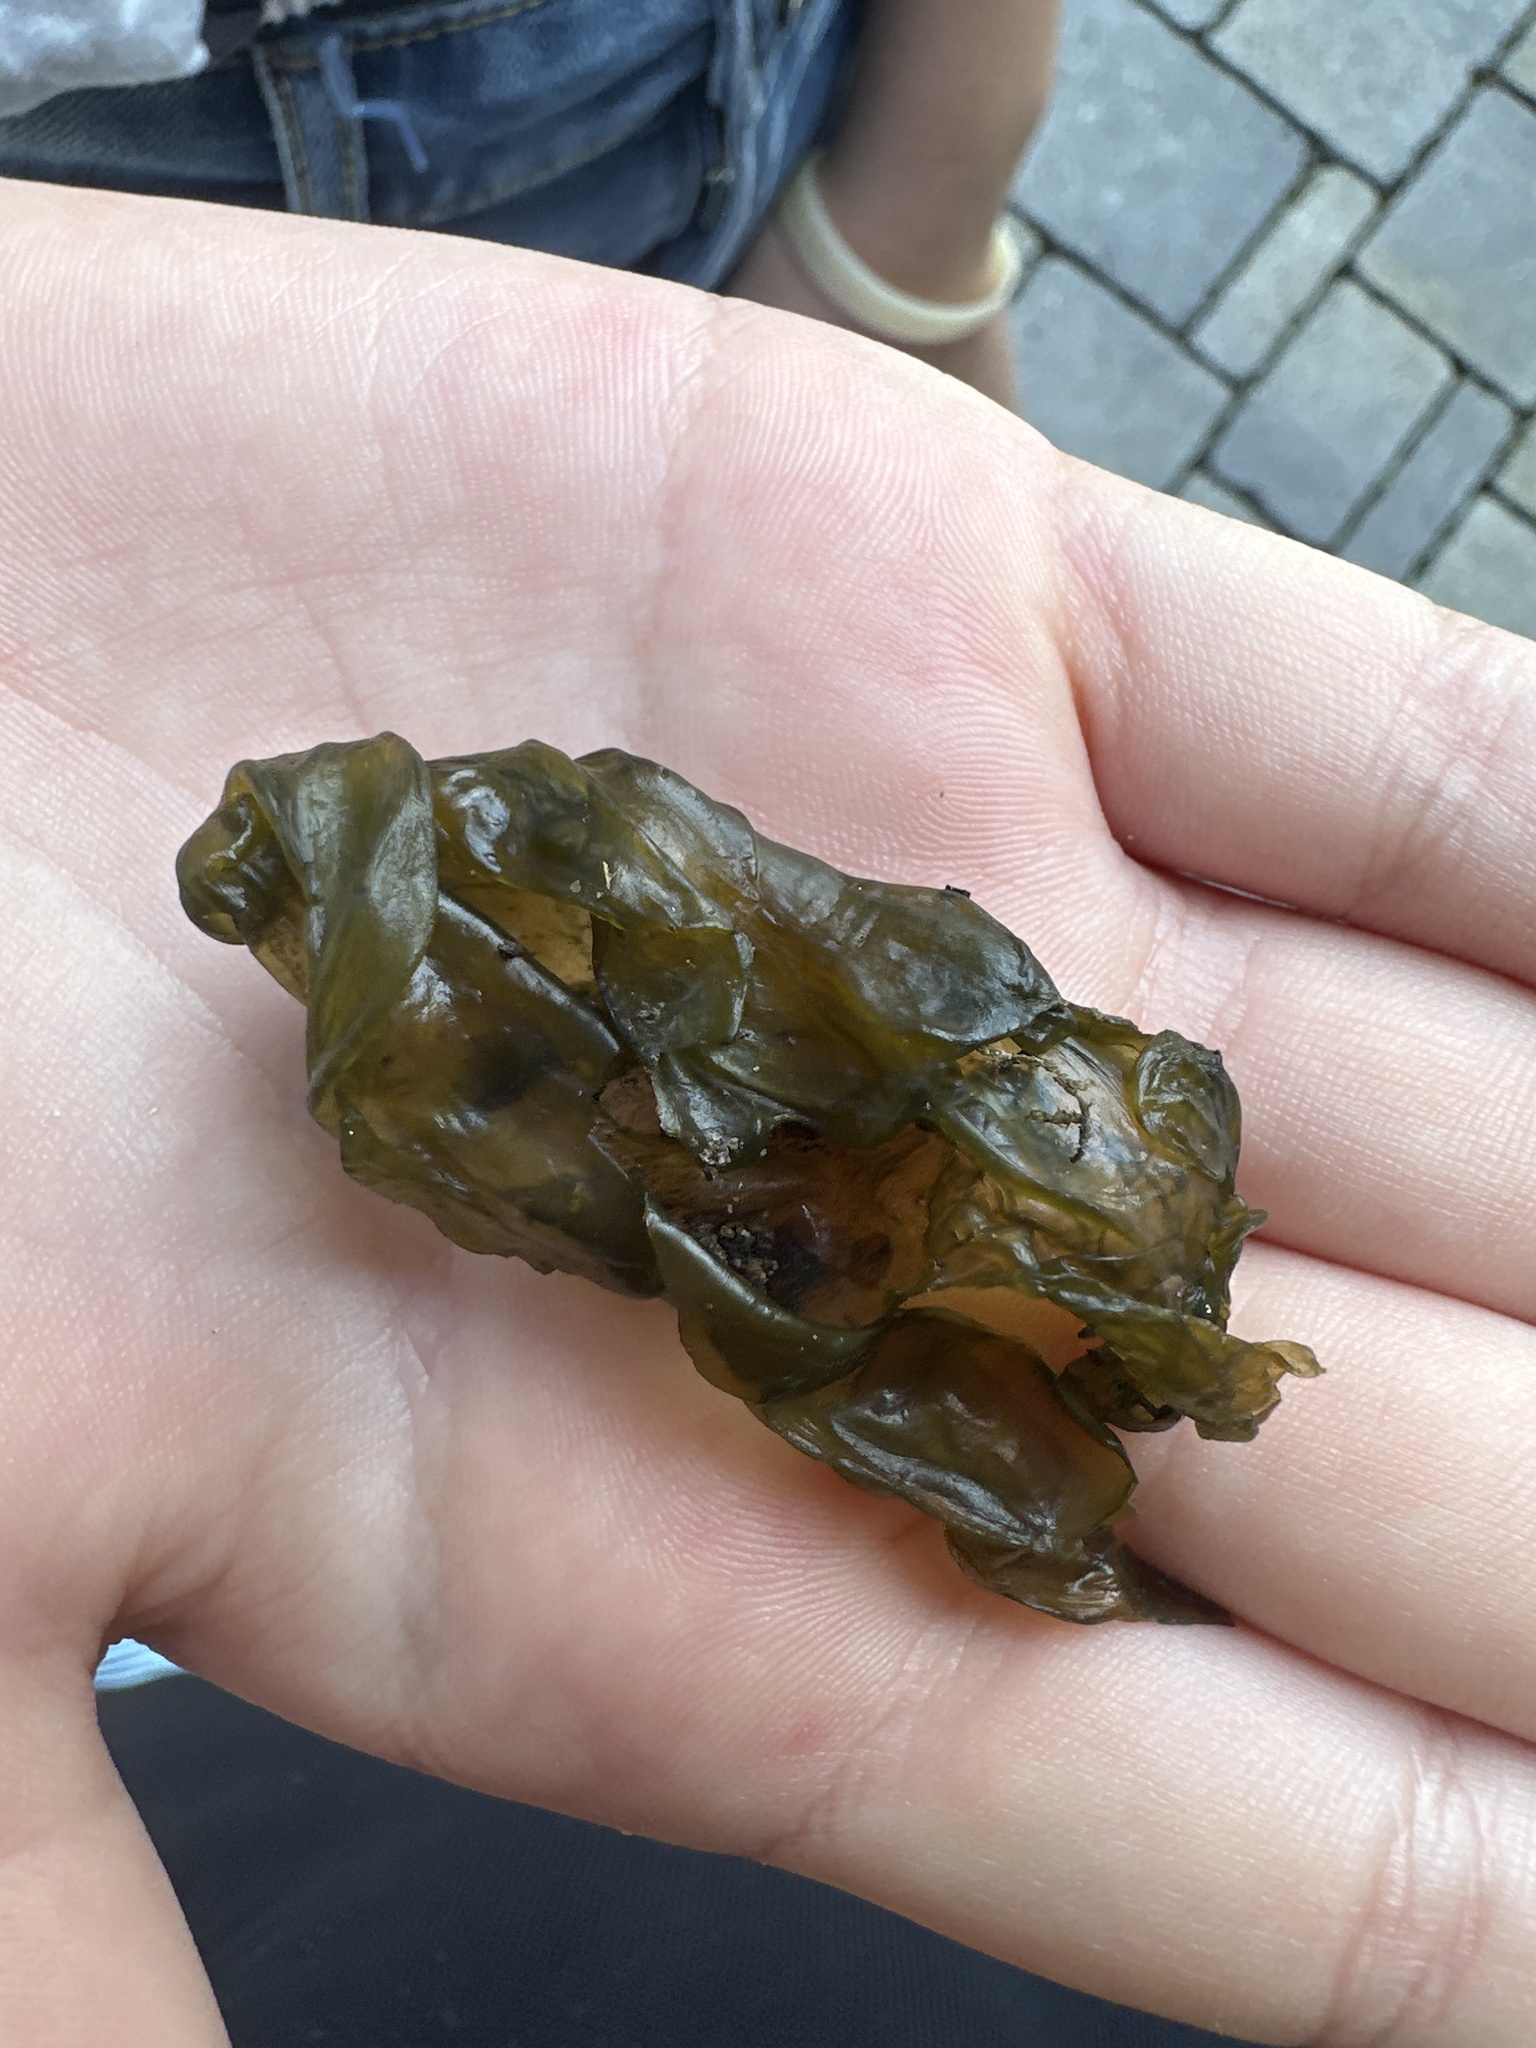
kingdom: Bacteria
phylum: Cyanobacteria
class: Cyanobacteriia
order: Cyanobacteriales
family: Nostocaceae
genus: Nostoc
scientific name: Nostoc commune
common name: Star jelly
